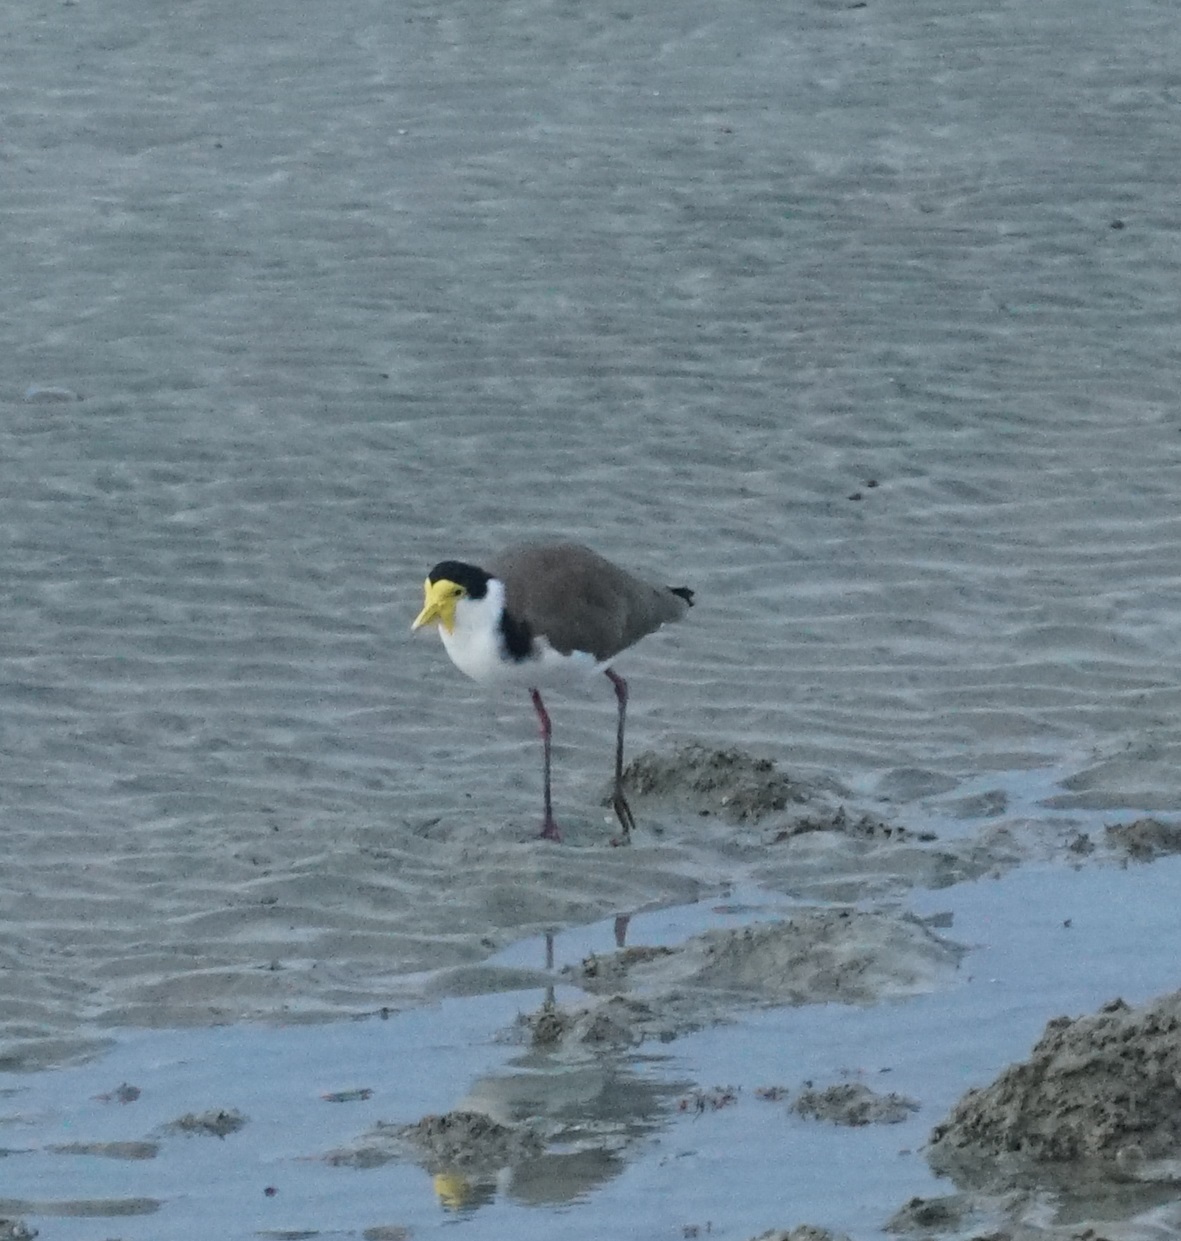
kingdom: Animalia
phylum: Chordata
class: Aves
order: Charadriiformes
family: Charadriidae
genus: Vanellus
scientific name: Vanellus miles
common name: Masked lapwing
